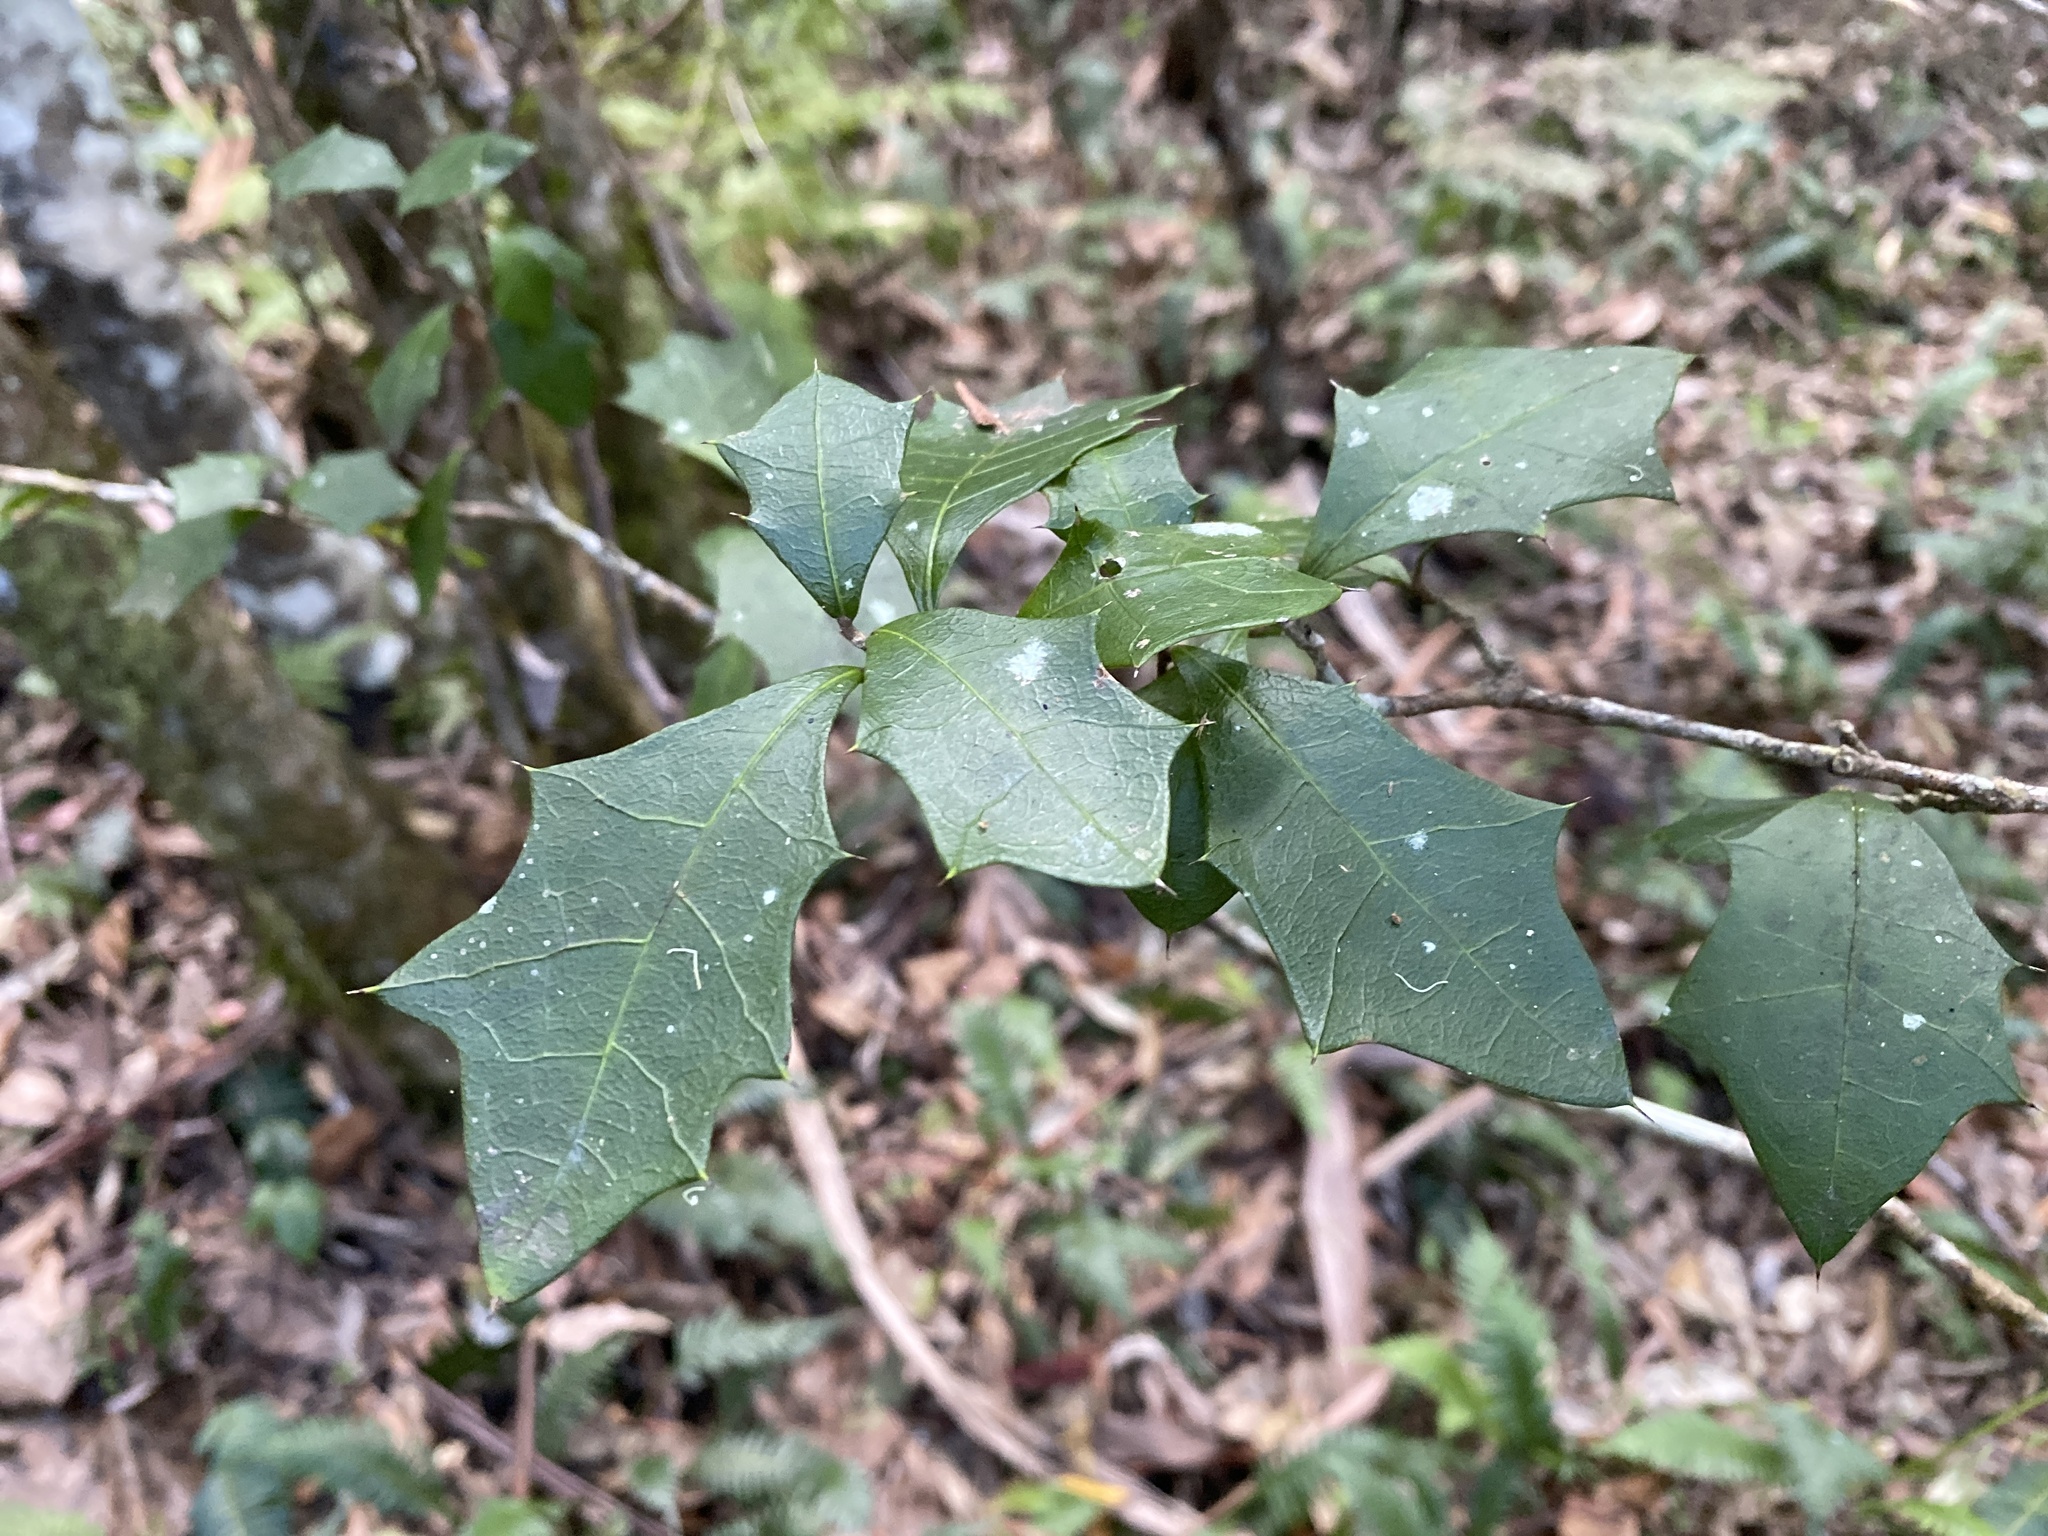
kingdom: Plantae
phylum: Tracheophyta
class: Magnoliopsida
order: Malpighiales
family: Euphorbiaceae
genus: Alchornea
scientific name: Alchornea ilicifolia
